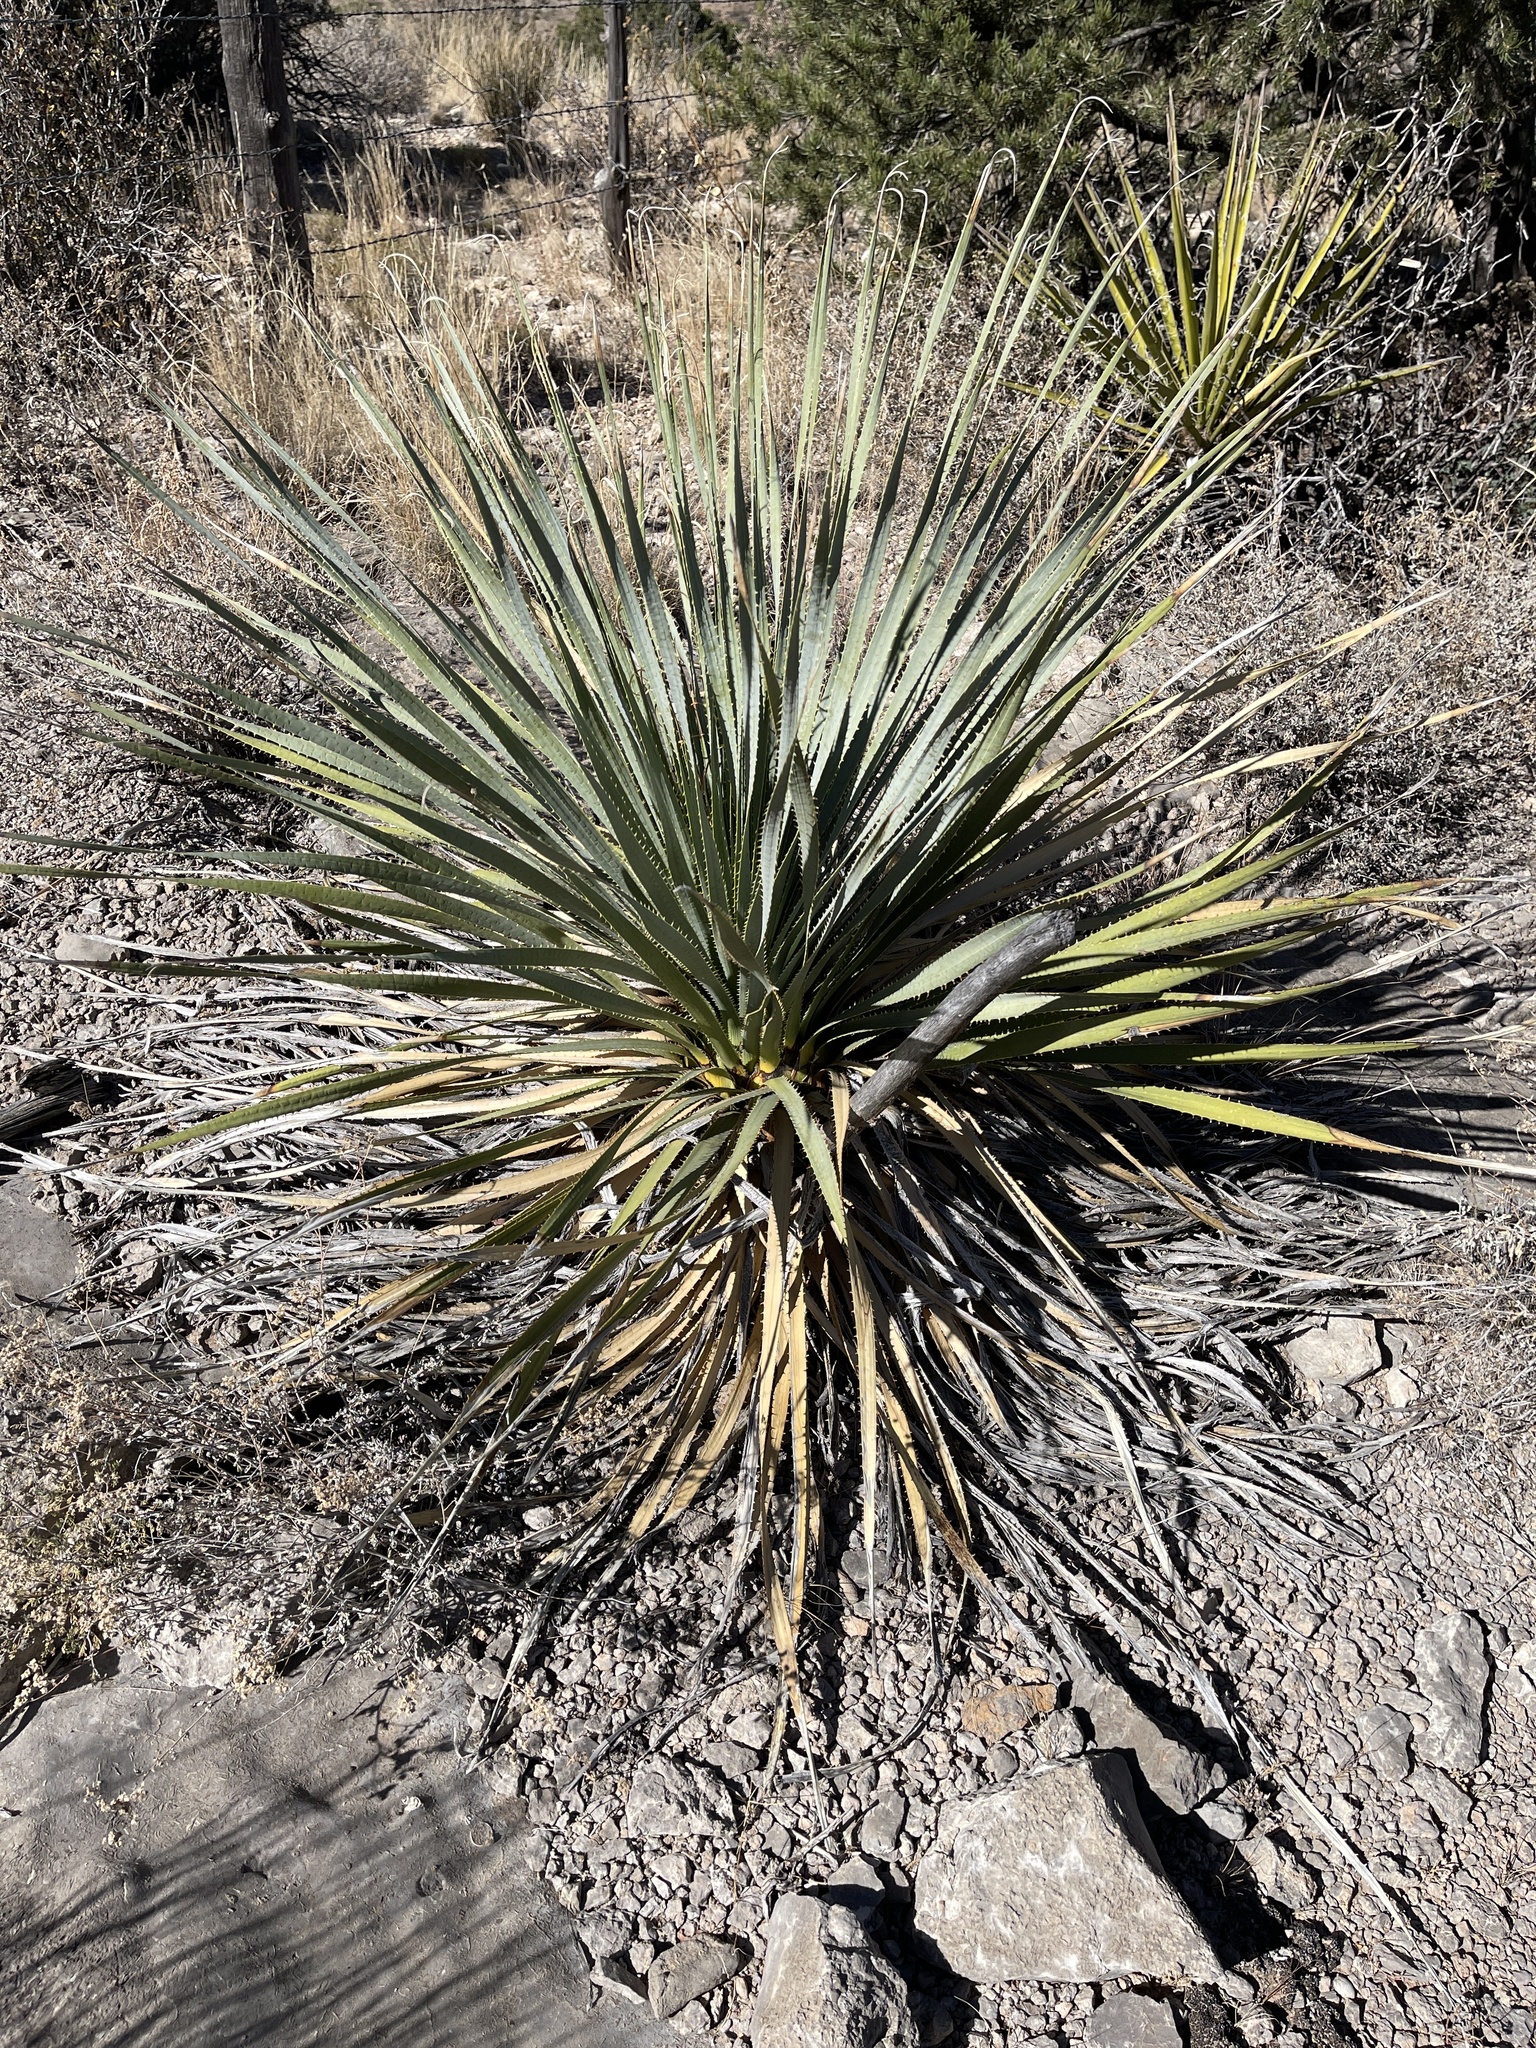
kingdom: Plantae
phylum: Tracheophyta
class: Liliopsida
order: Asparagales
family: Asparagaceae
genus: Dasylirion
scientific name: Dasylirion wheeleri
